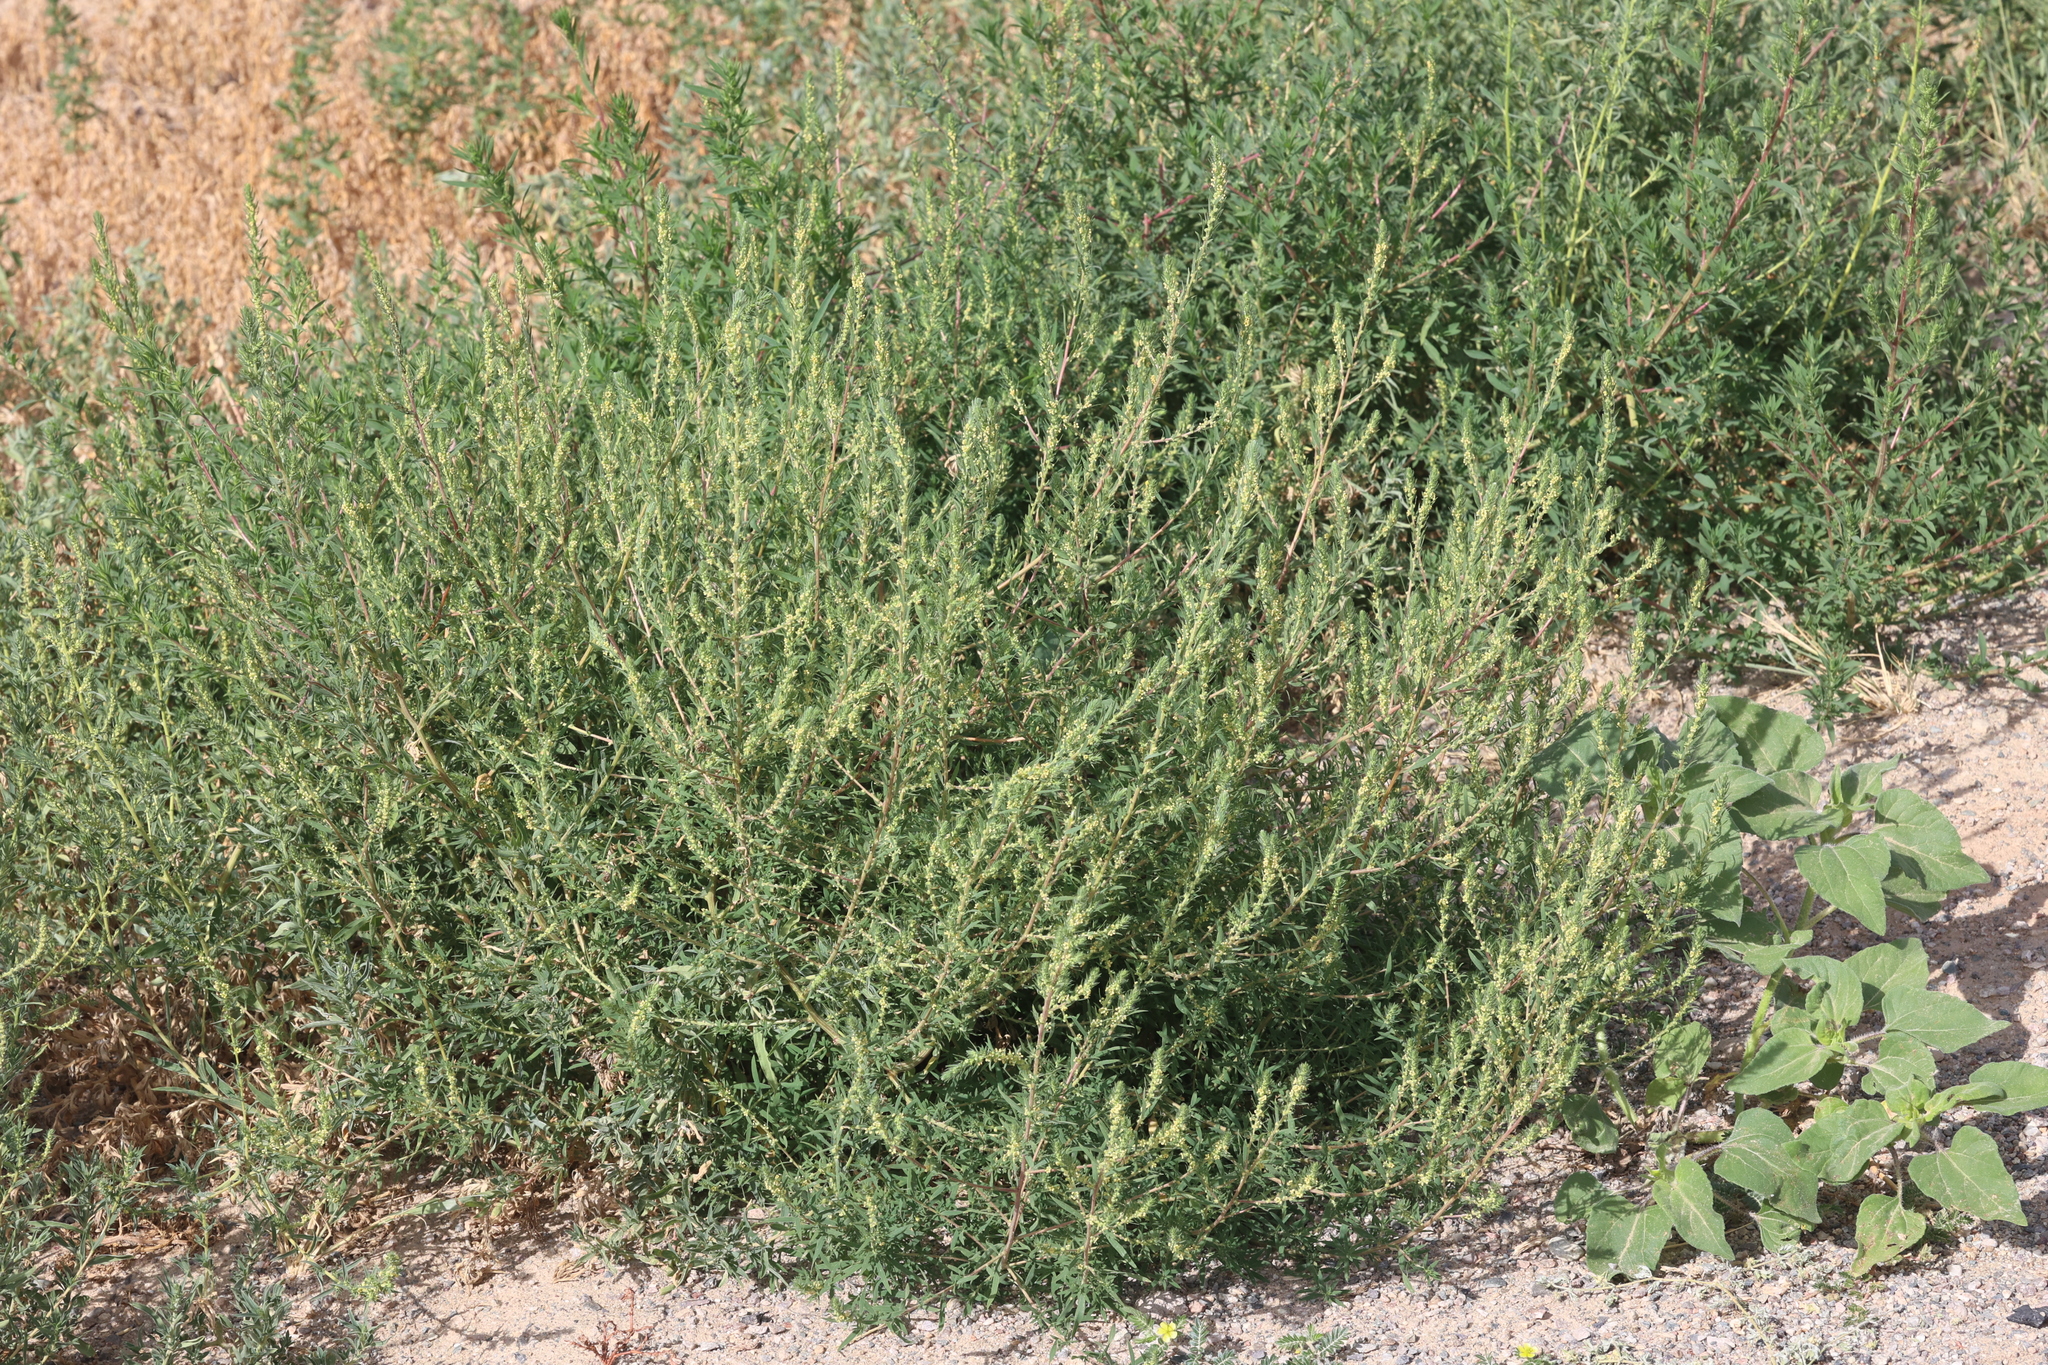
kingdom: Plantae
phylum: Tracheophyta
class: Magnoliopsida
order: Caryophyllales
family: Amaranthaceae
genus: Bassia
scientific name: Bassia scoparia
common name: Belvedere
